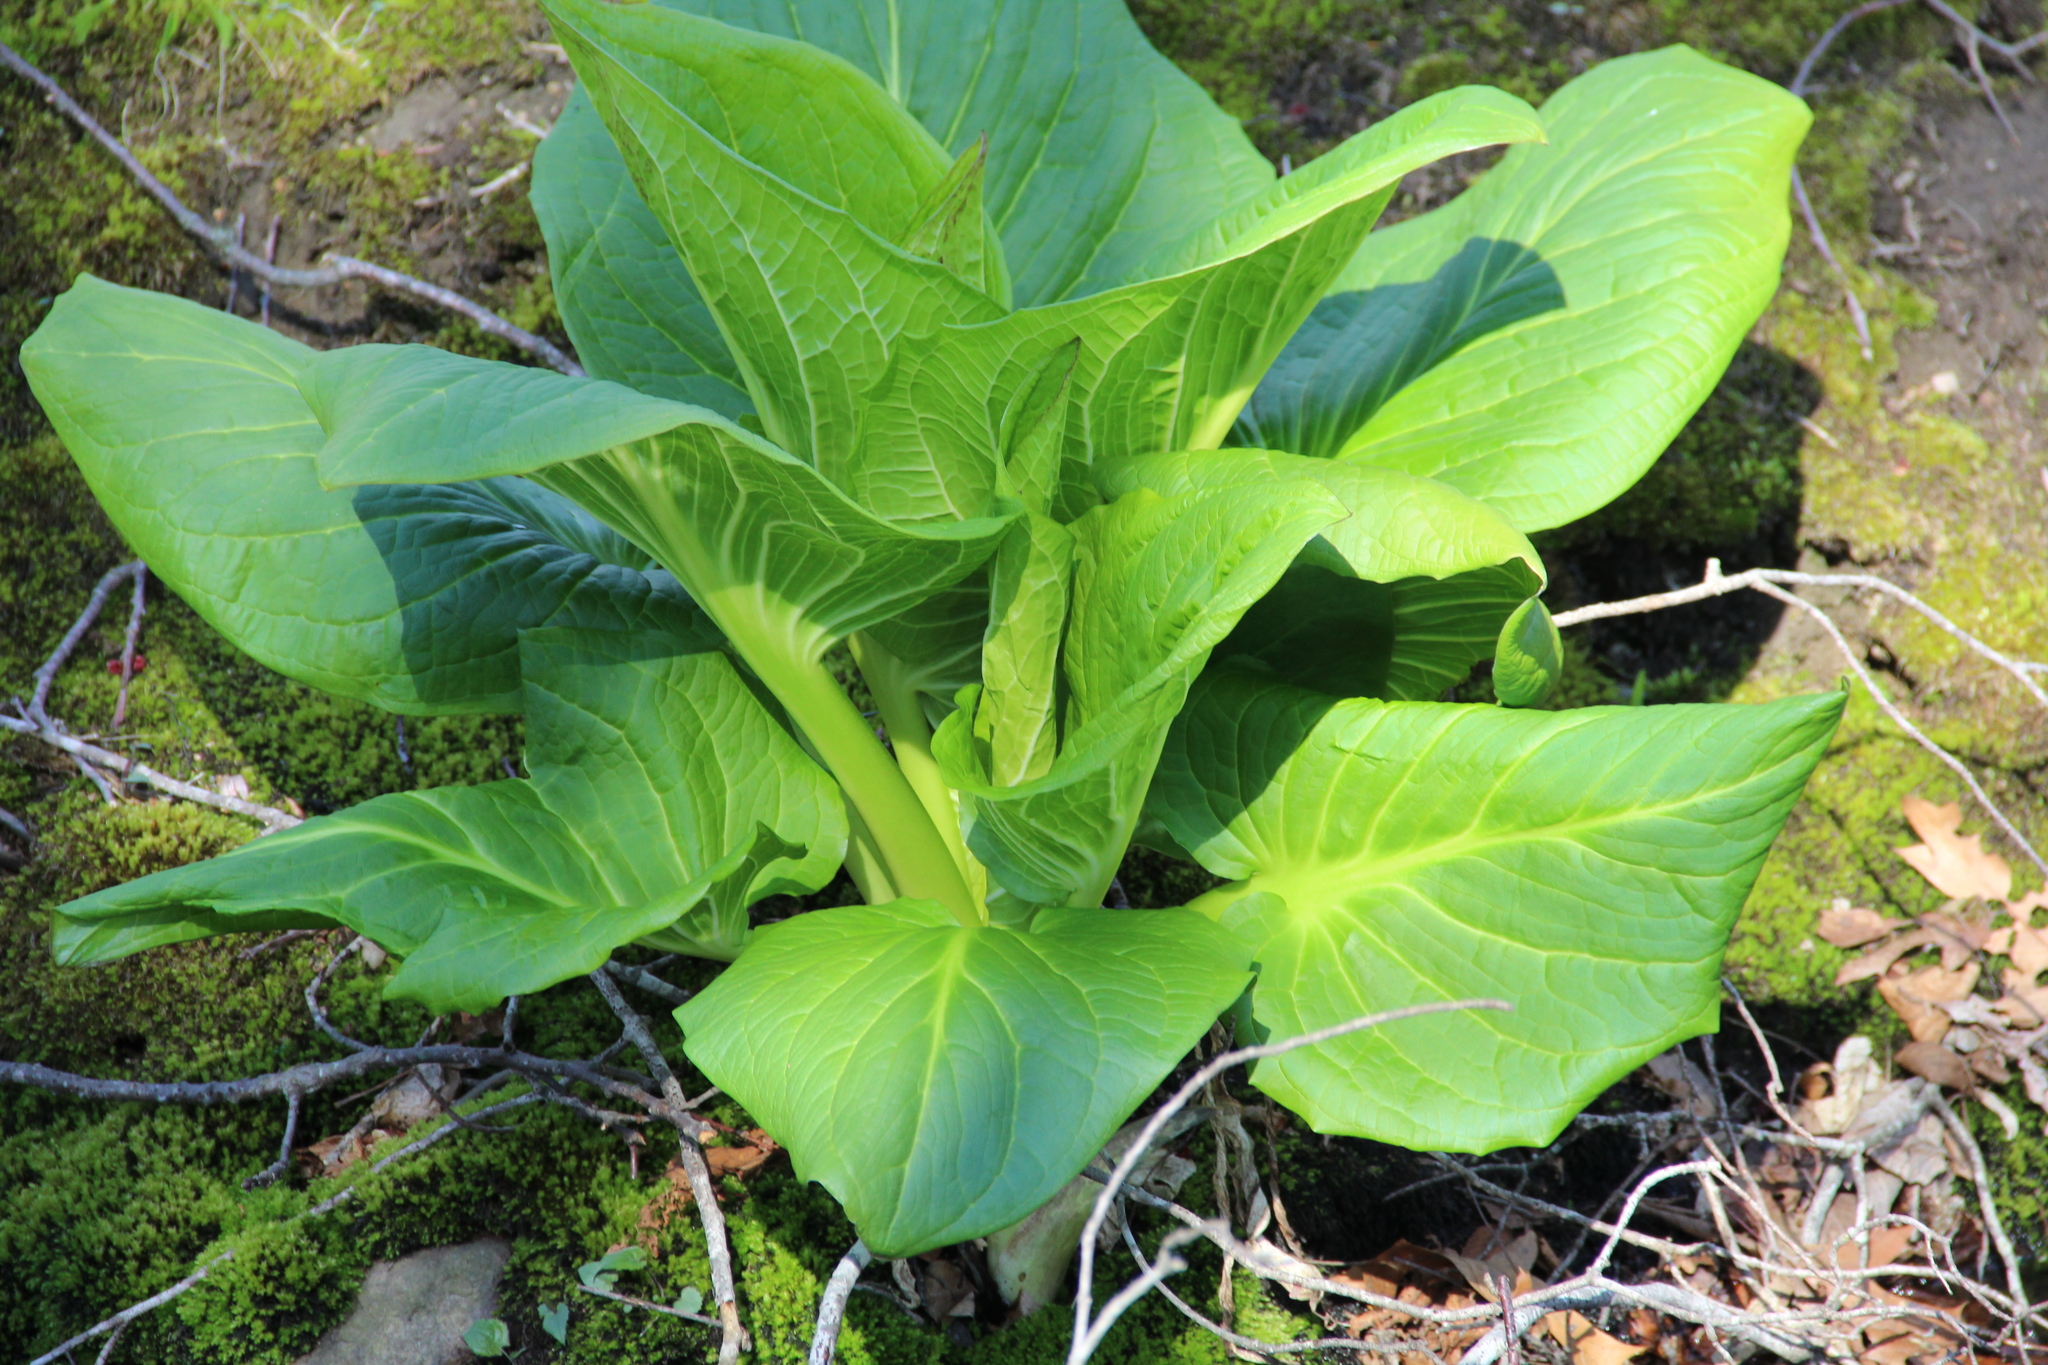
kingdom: Plantae
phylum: Tracheophyta
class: Liliopsida
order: Alismatales
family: Araceae
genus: Symplocarpus
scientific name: Symplocarpus foetidus
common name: Eastern skunk cabbage
